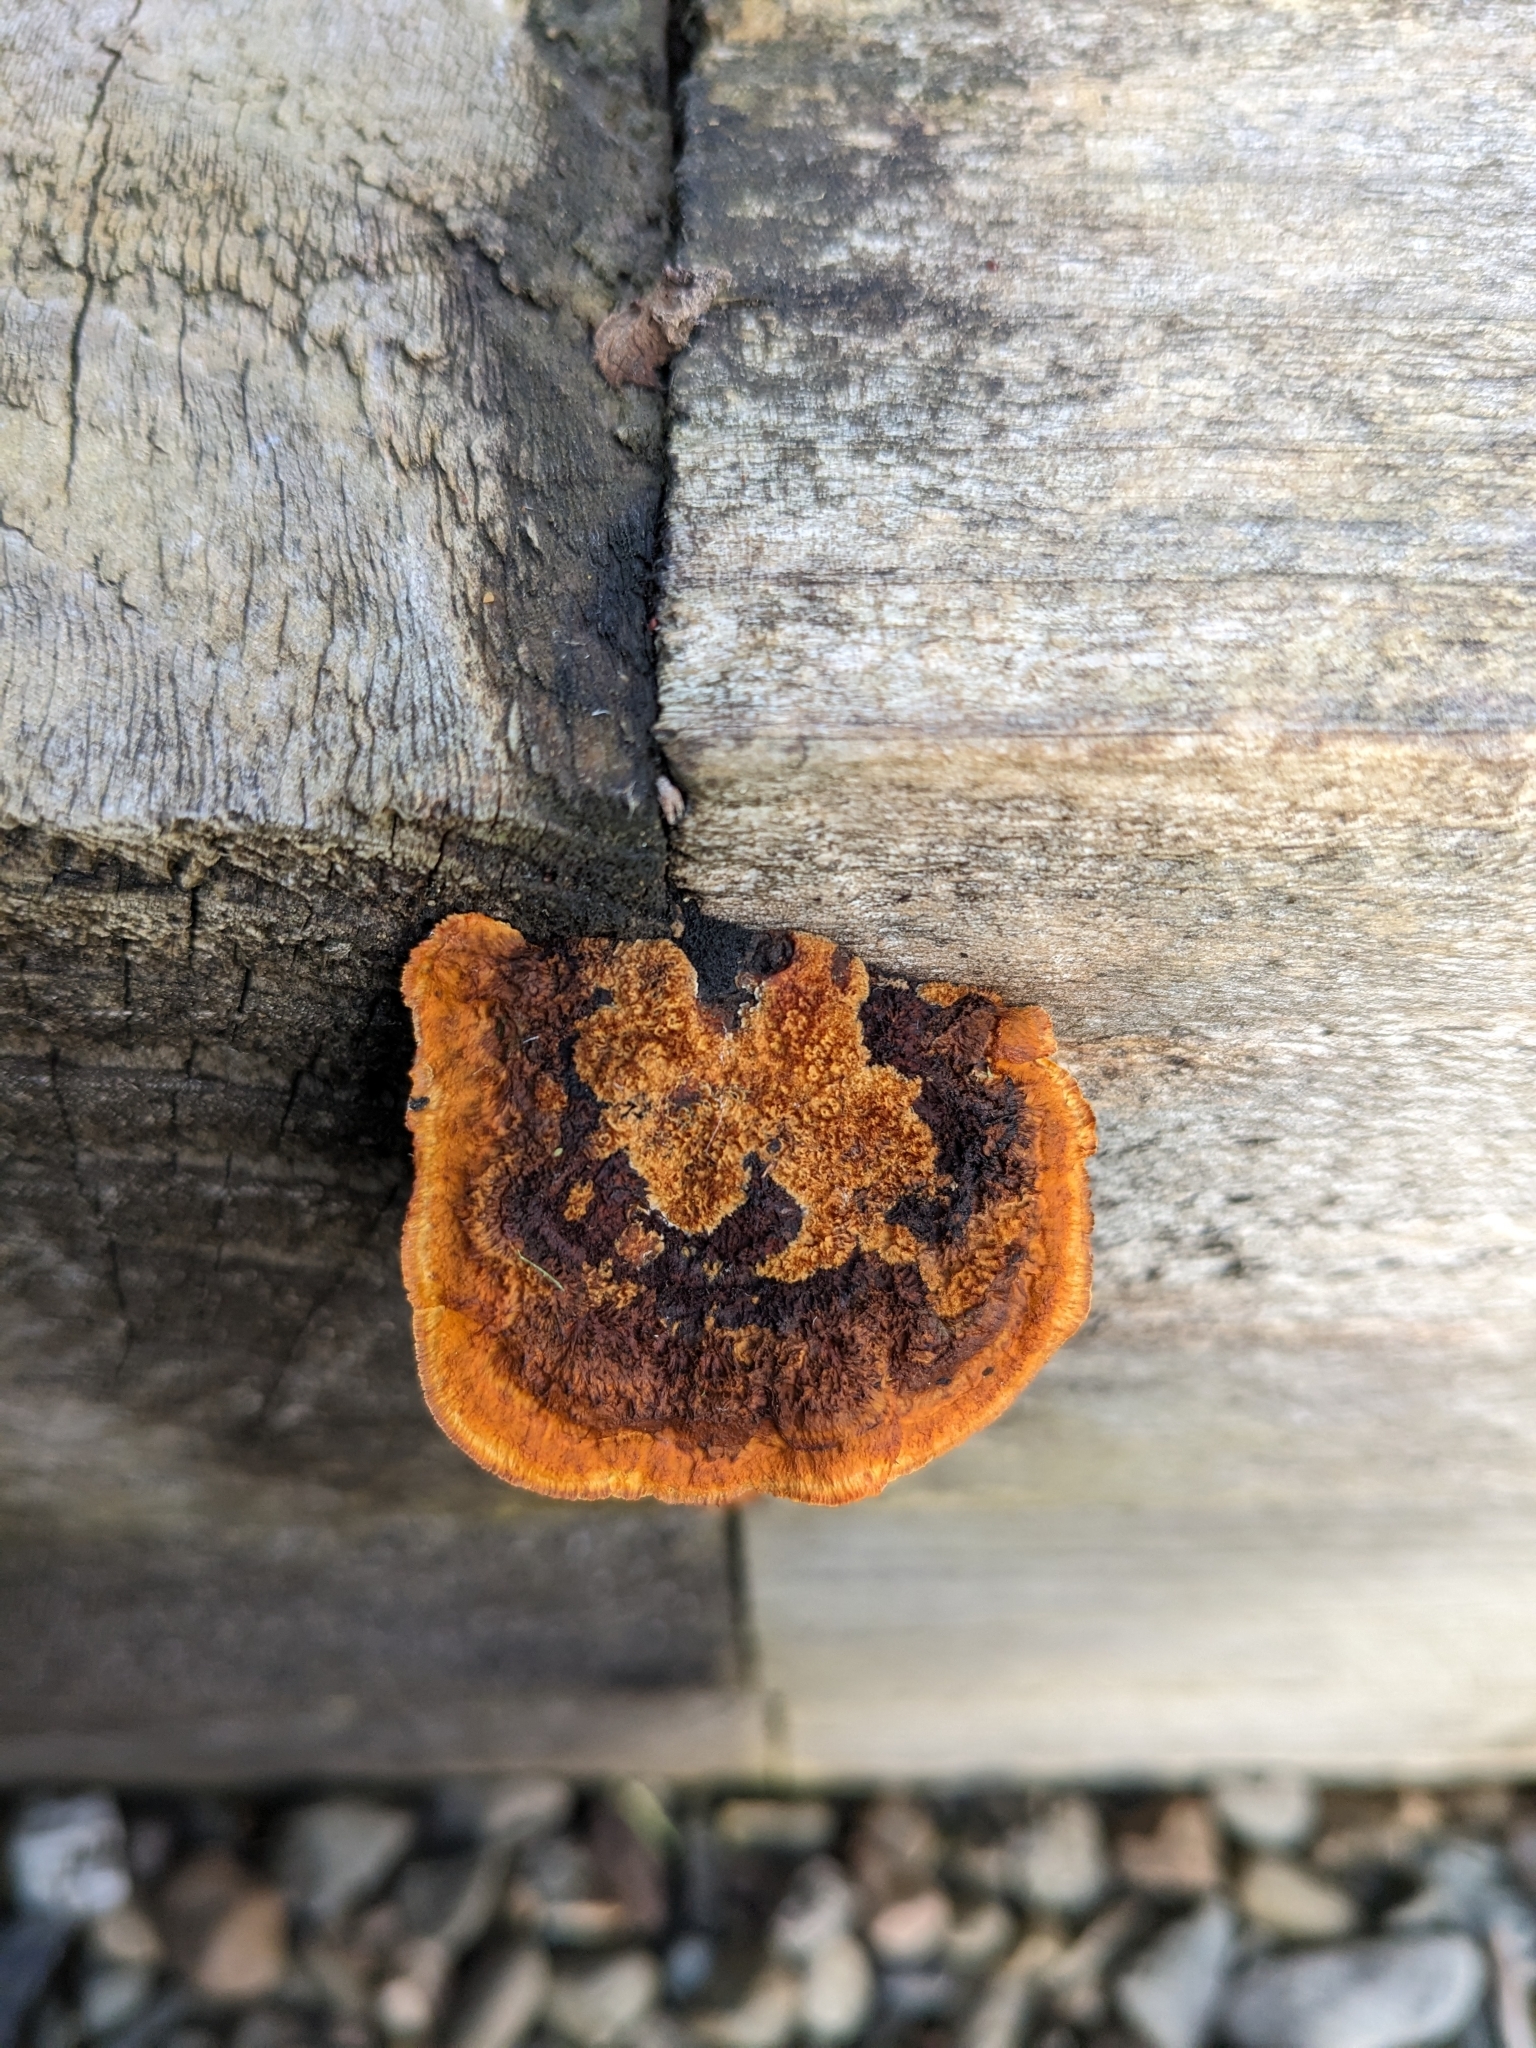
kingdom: Fungi
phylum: Basidiomycota
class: Agaricomycetes
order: Gloeophyllales
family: Gloeophyllaceae
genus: Gloeophyllum
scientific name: Gloeophyllum sepiarium
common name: Conifer mazegill
